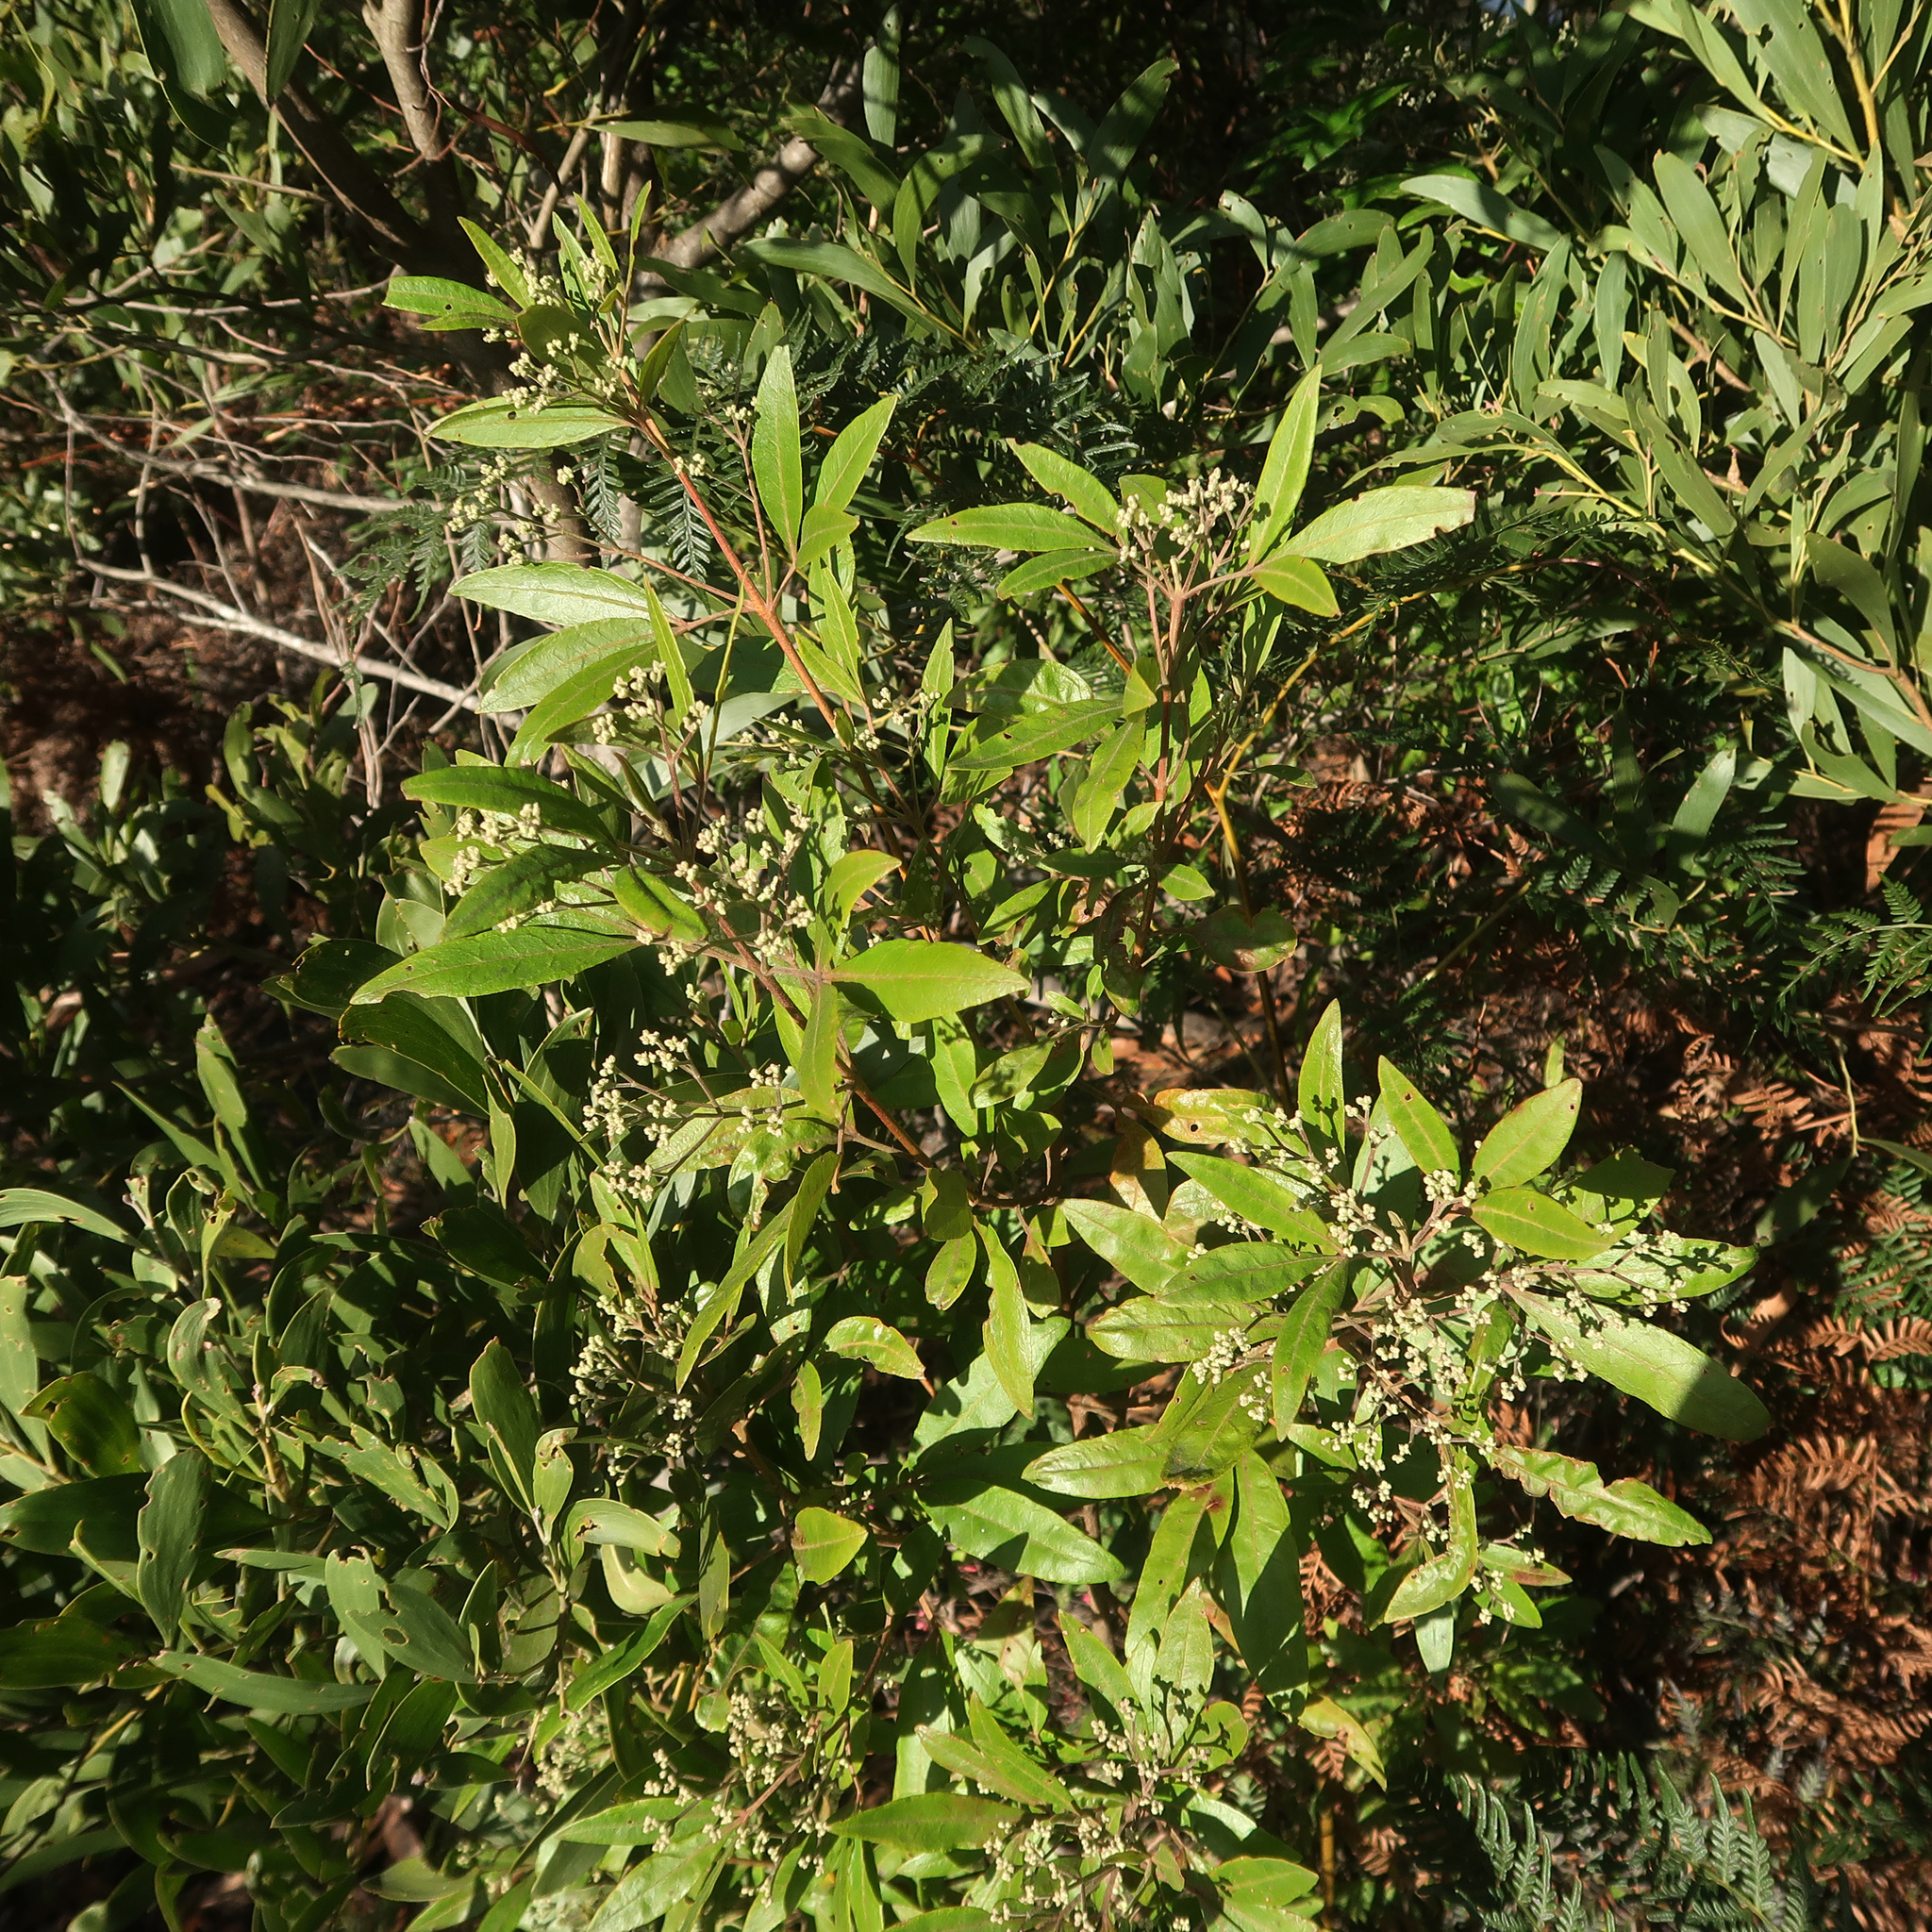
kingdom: Plantae
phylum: Tracheophyta
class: Magnoliopsida
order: Sapindales
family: Rutaceae
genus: Zieria
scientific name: Zieria arborescens
